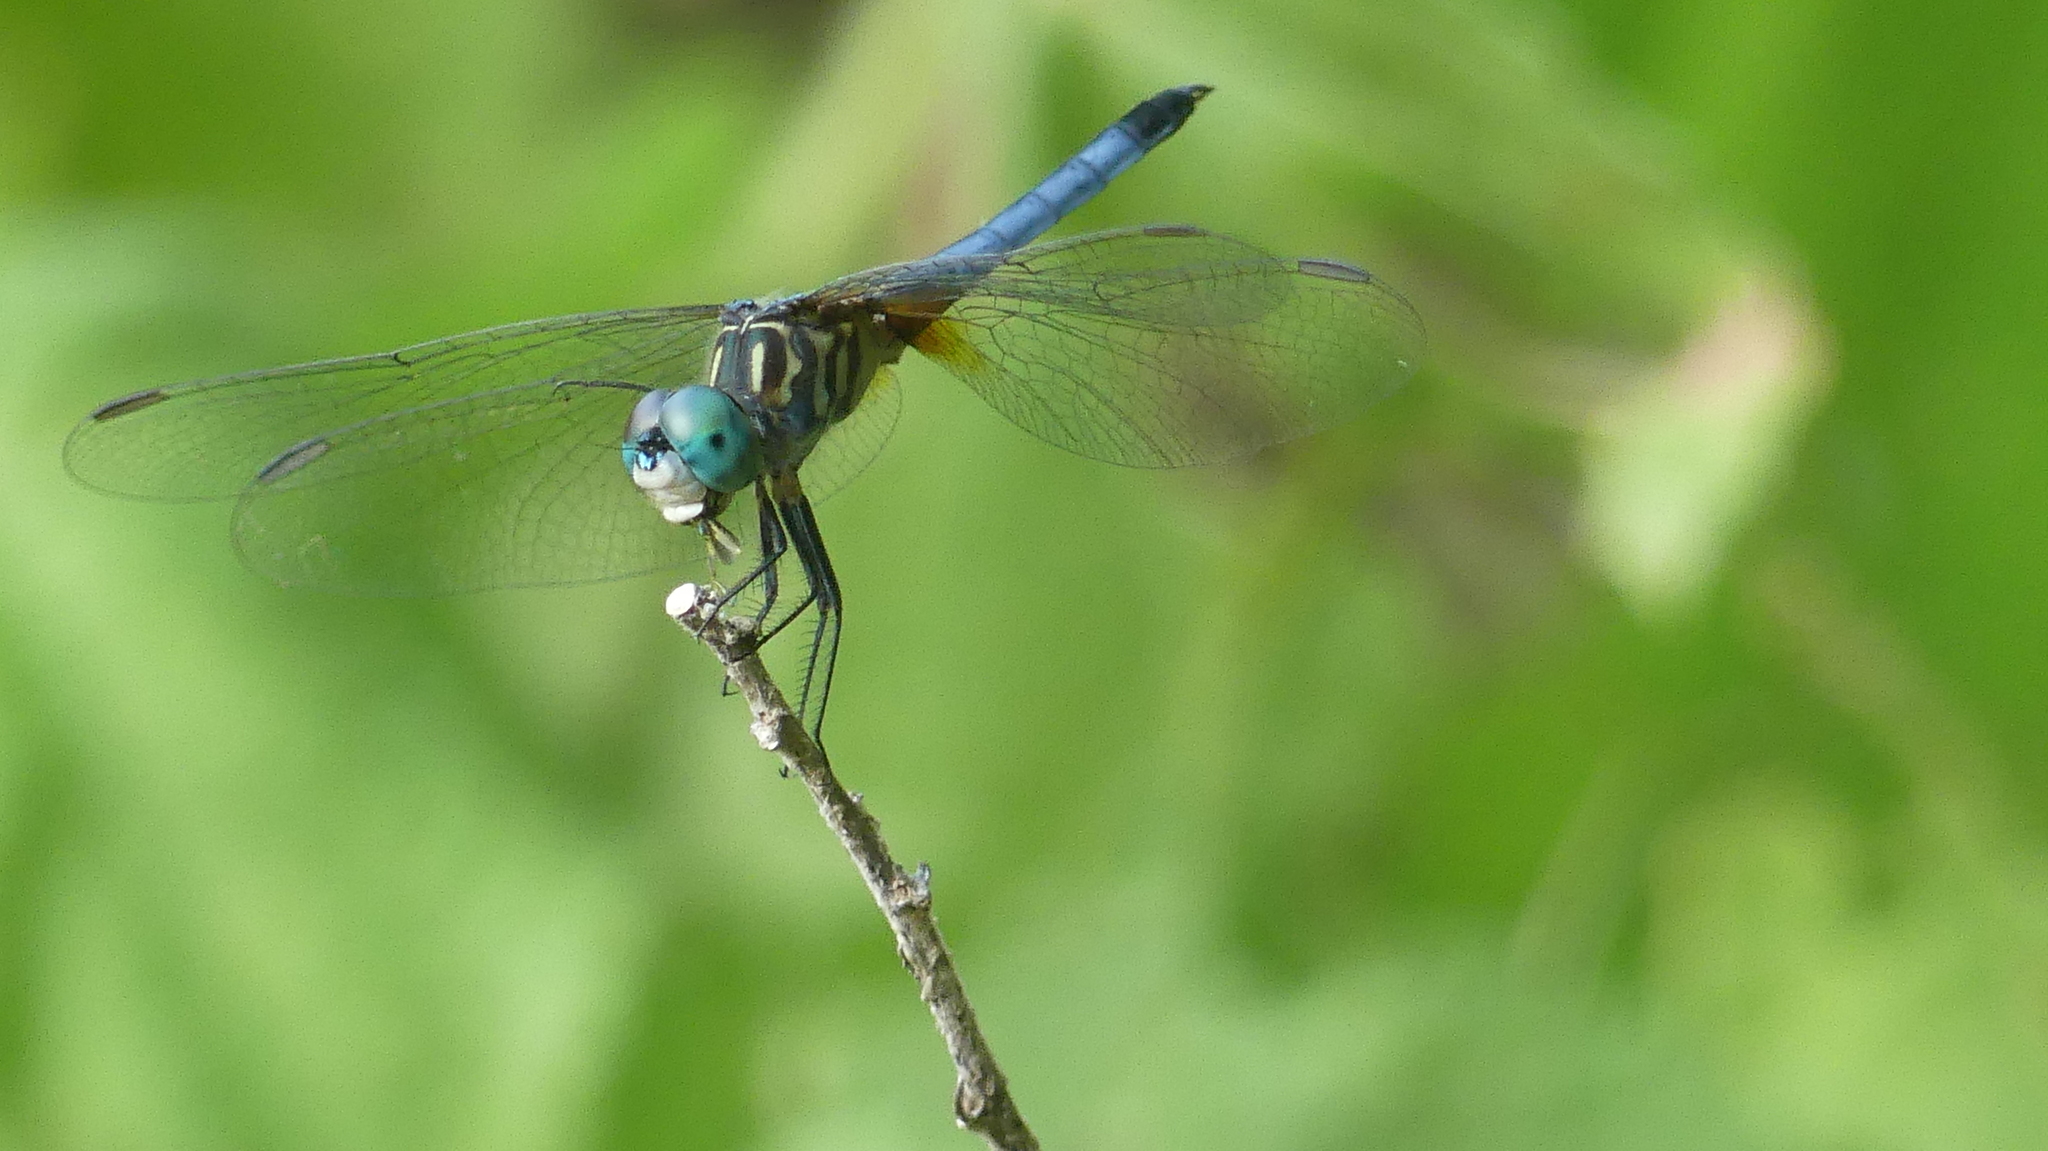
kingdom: Animalia
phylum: Arthropoda
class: Insecta
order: Odonata
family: Libellulidae
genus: Pachydiplax
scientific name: Pachydiplax longipennis
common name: Blue dasher
